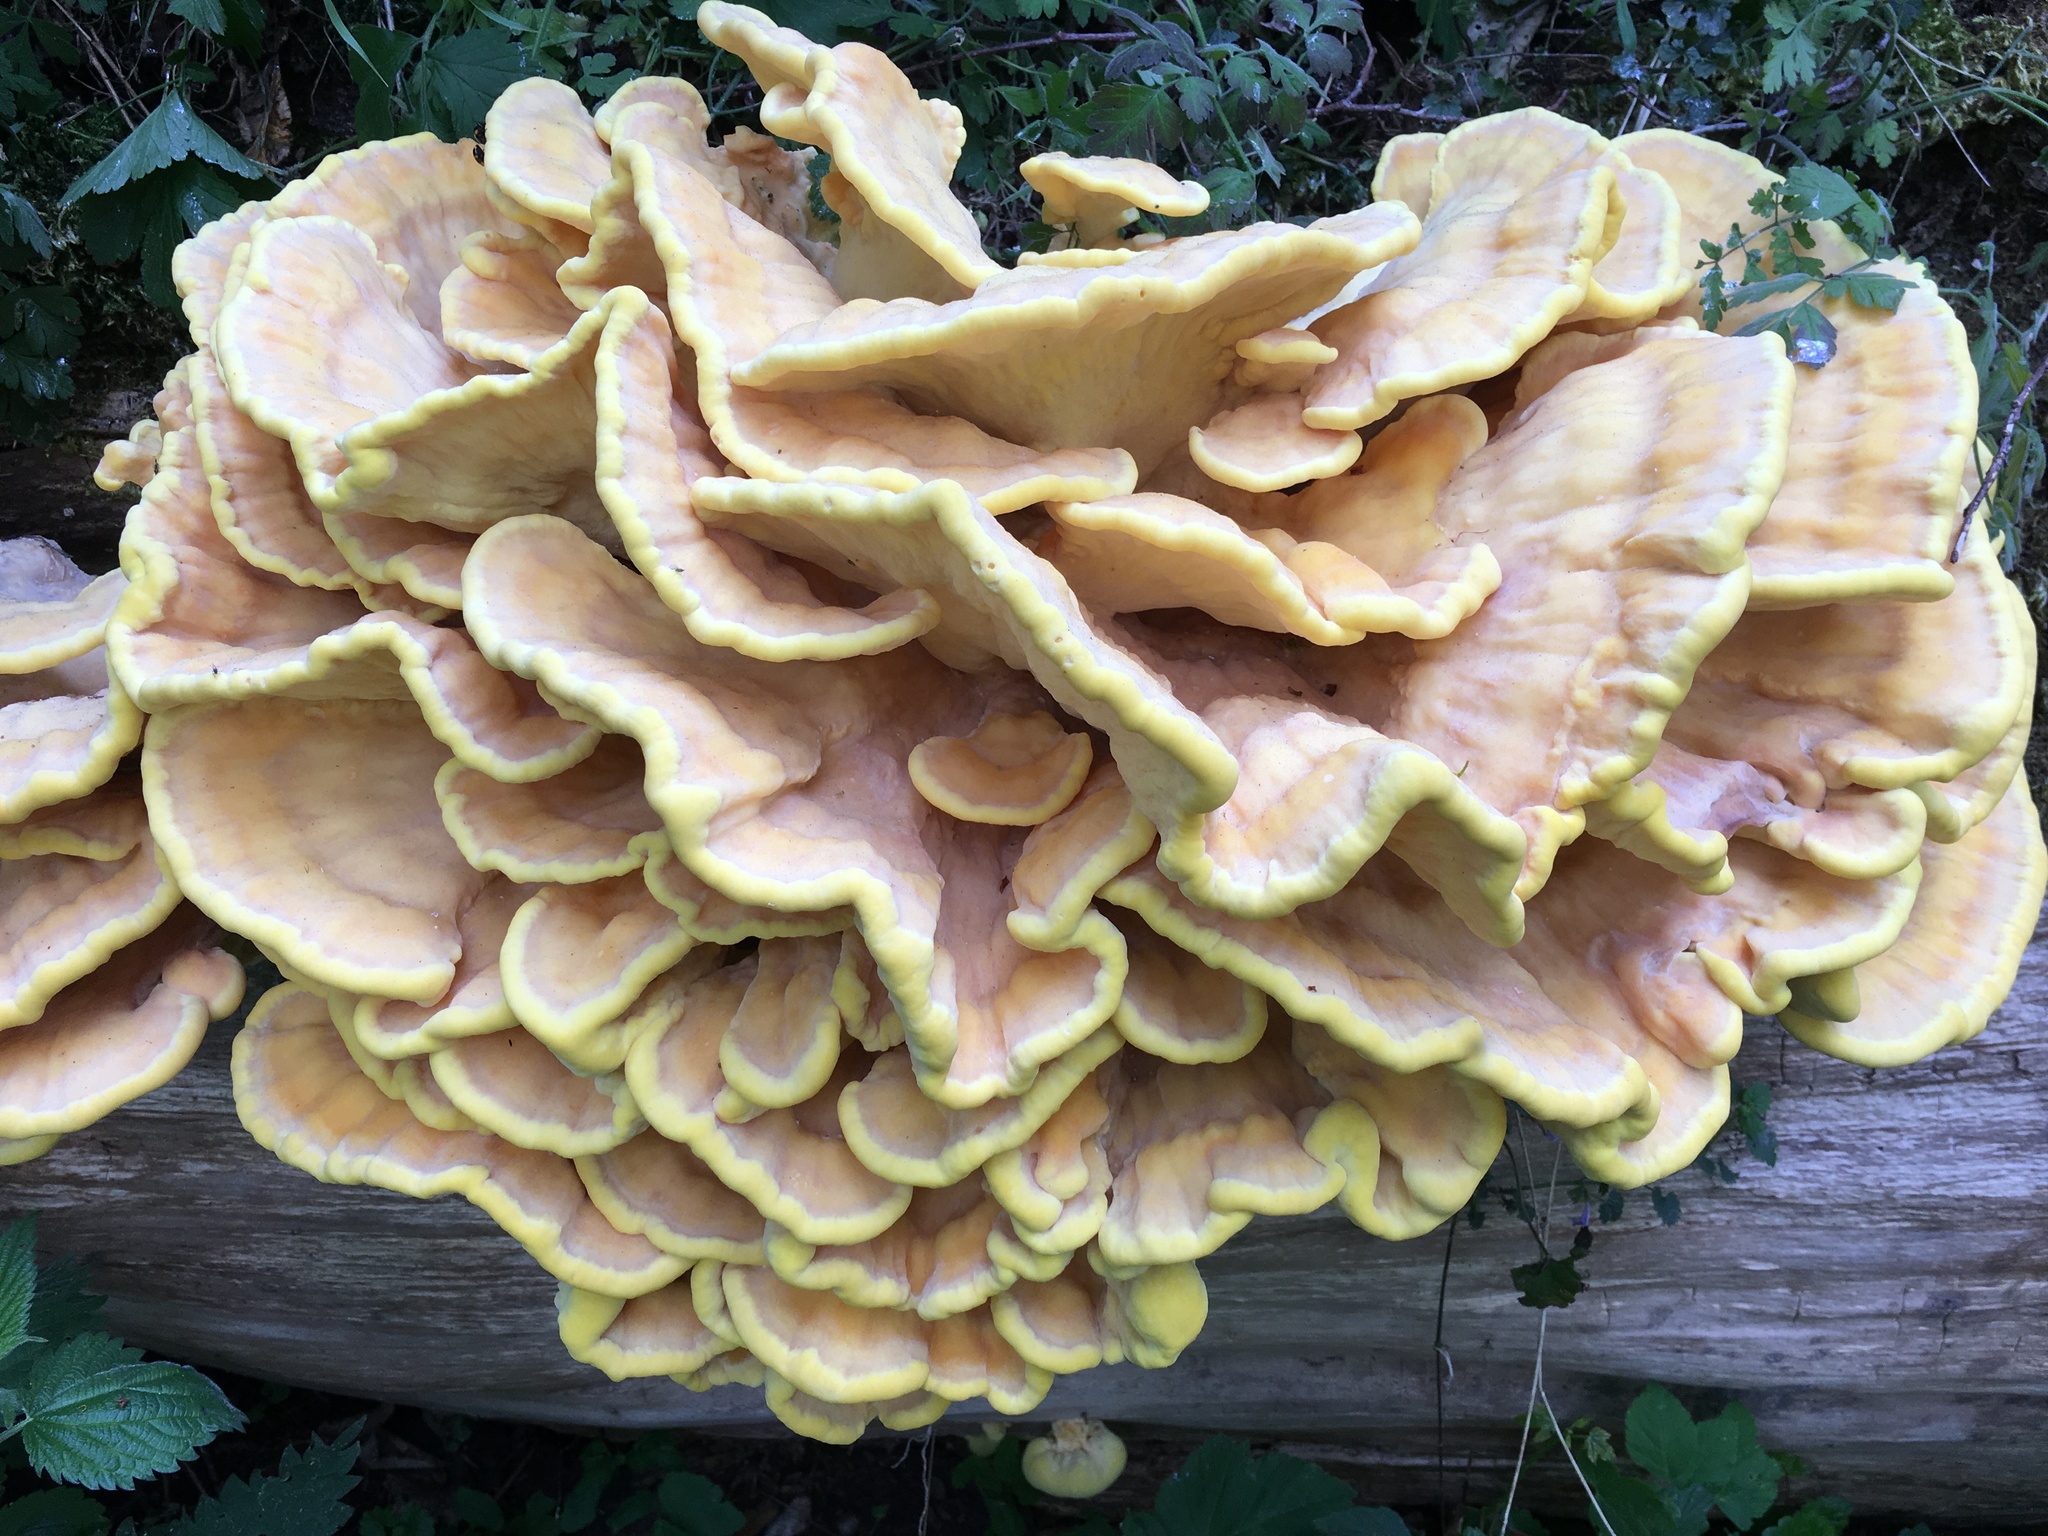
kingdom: Fungi
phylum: Basidiomycota
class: Agaricomycetes
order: Polyporales
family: Laetiporaceae
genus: Laetiporus
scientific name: Laetiporus sulphureus
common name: Chicken of the woods
